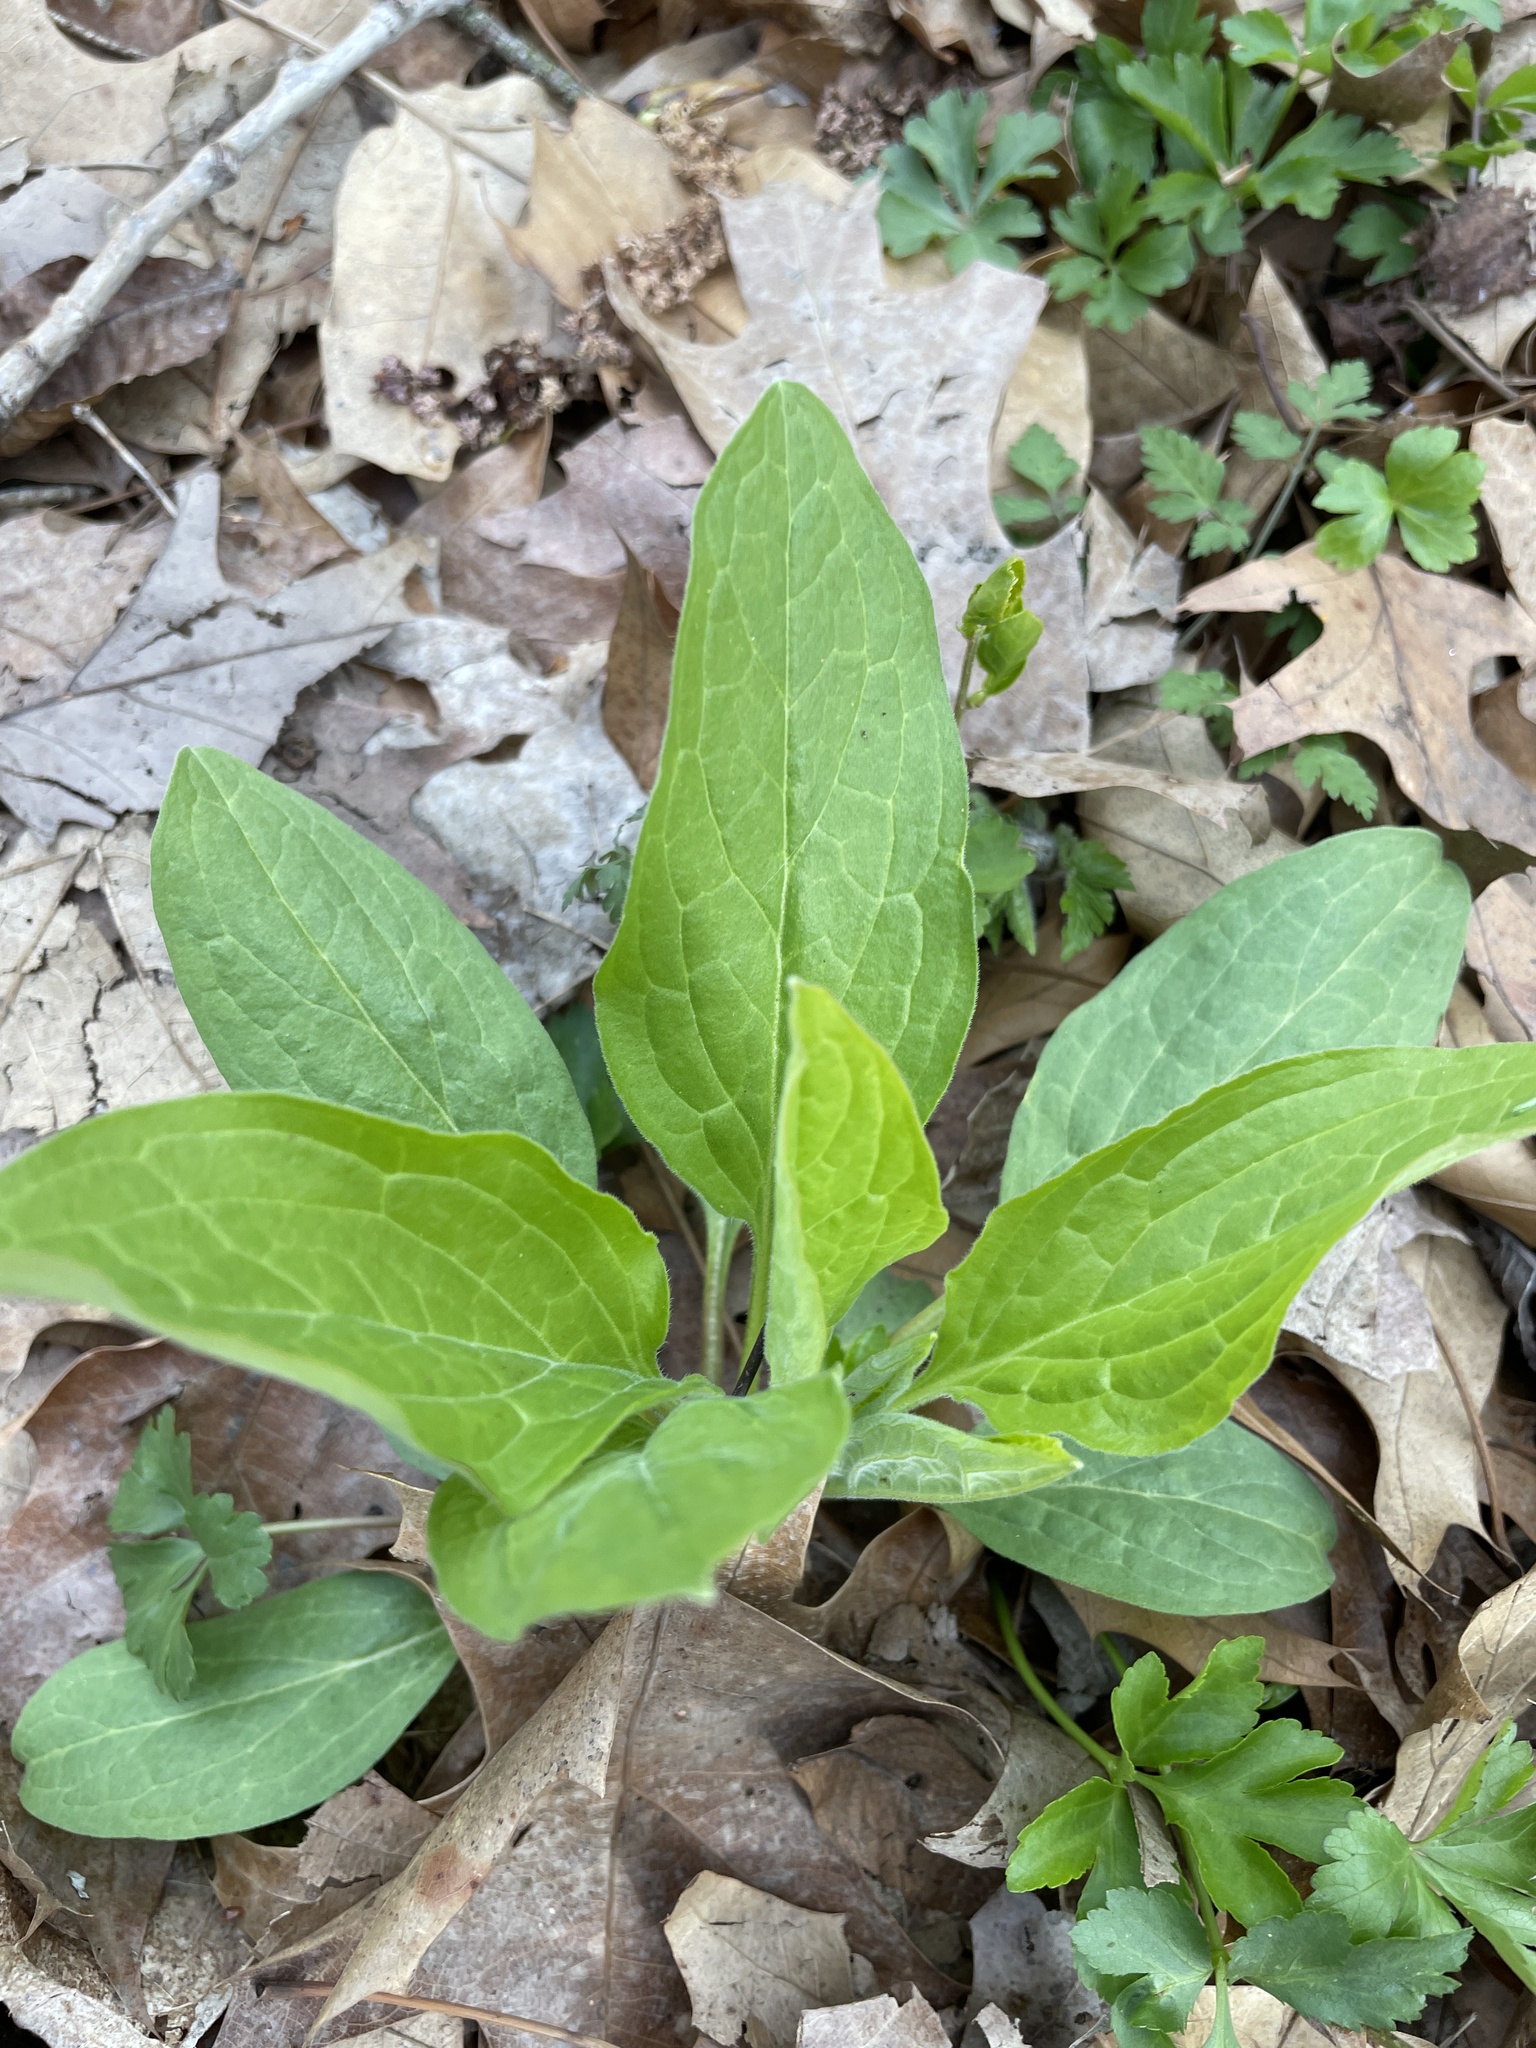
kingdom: Plantae
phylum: Tracheophyta
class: Magnoliopsida
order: Boraginales
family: Boraginaceae
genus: Hackelia
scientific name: Hackelia virginiana
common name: Beggar's-lice
